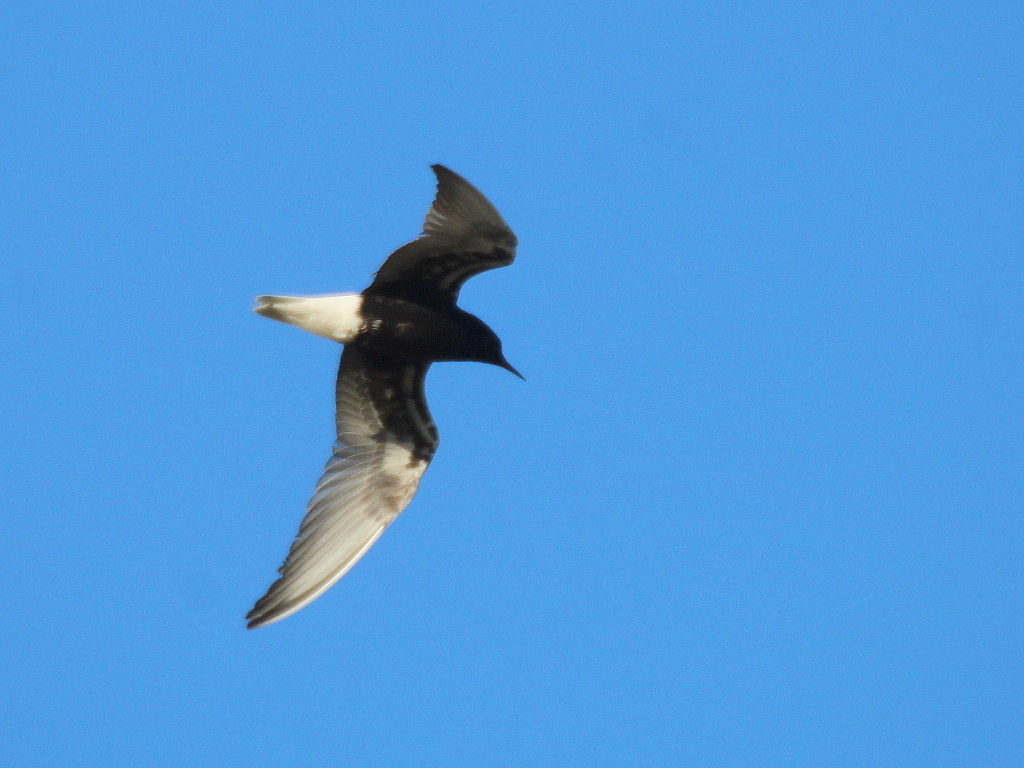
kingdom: Animalia
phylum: Chordata
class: Aves
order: Charadriiformes
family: Laridae
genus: Chlidonias
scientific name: Chlidonias leucopterus
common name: White-winged tern
